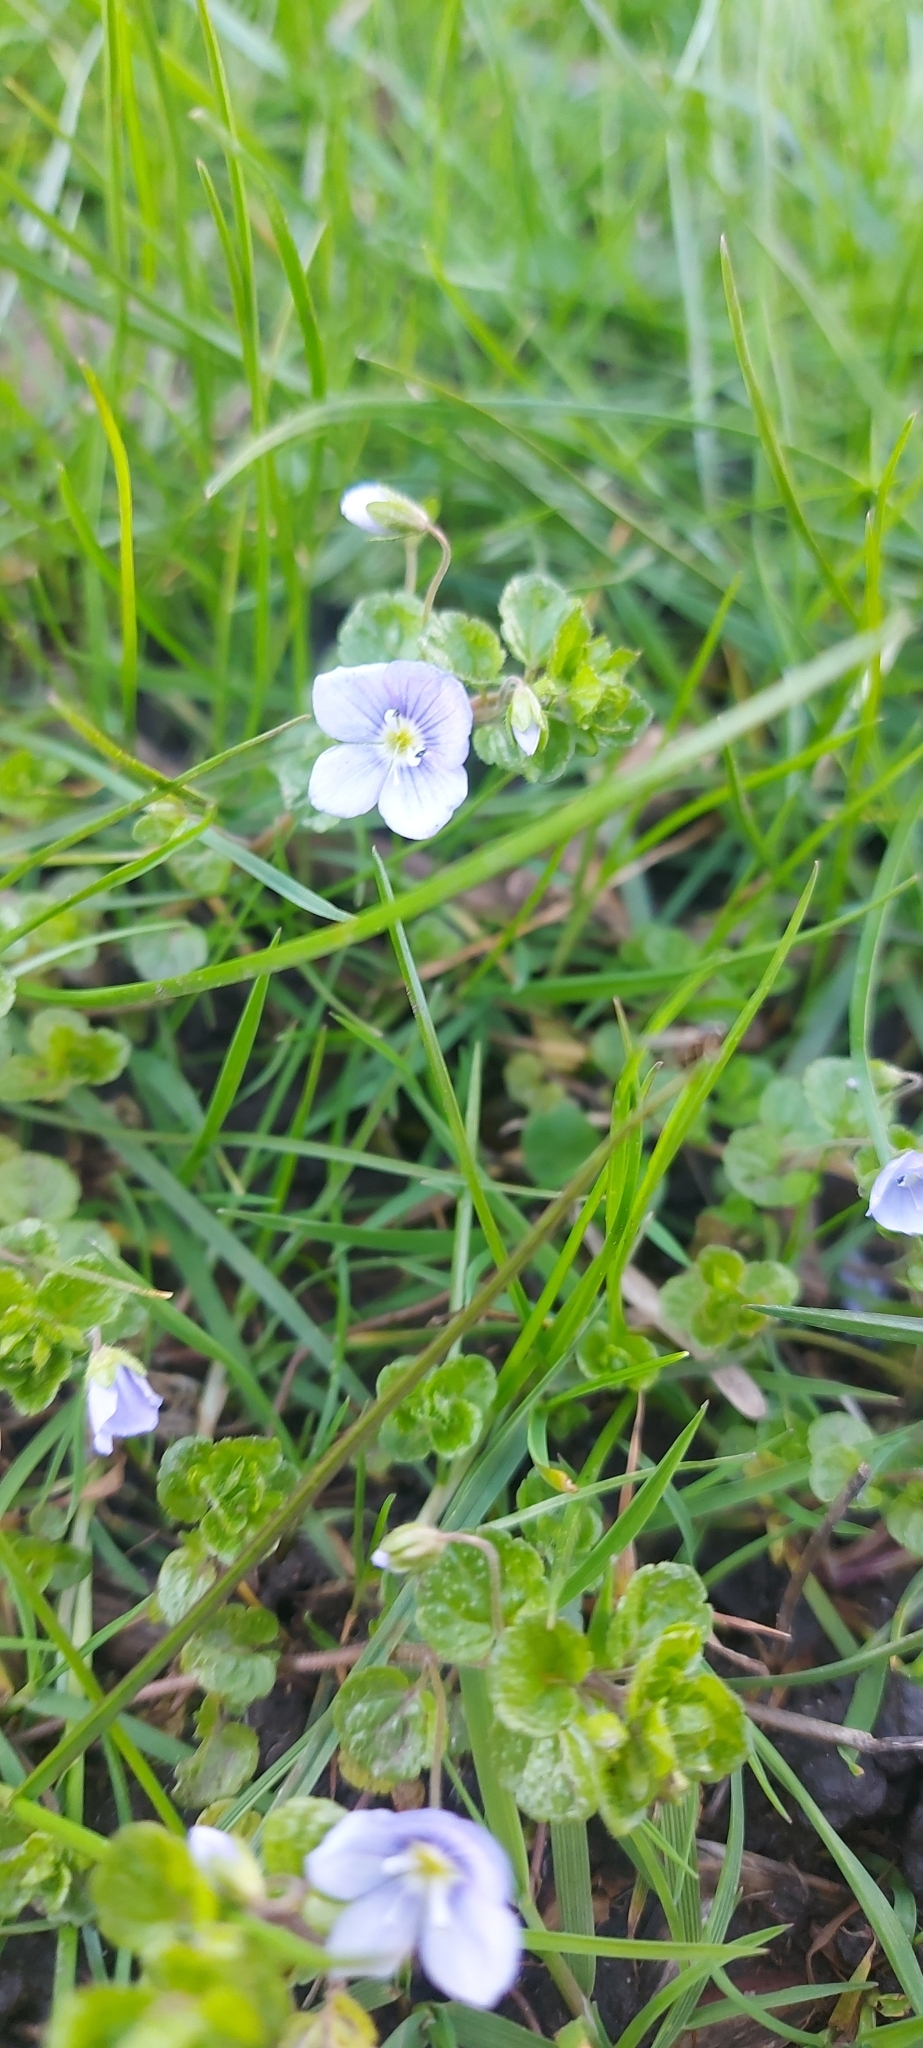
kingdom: Plantae
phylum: Tracheophyta
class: Magnoliopsida
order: Lamiales
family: Plantaginaceae
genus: Veronica
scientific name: Veronica filiformis
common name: Slender speedwell
